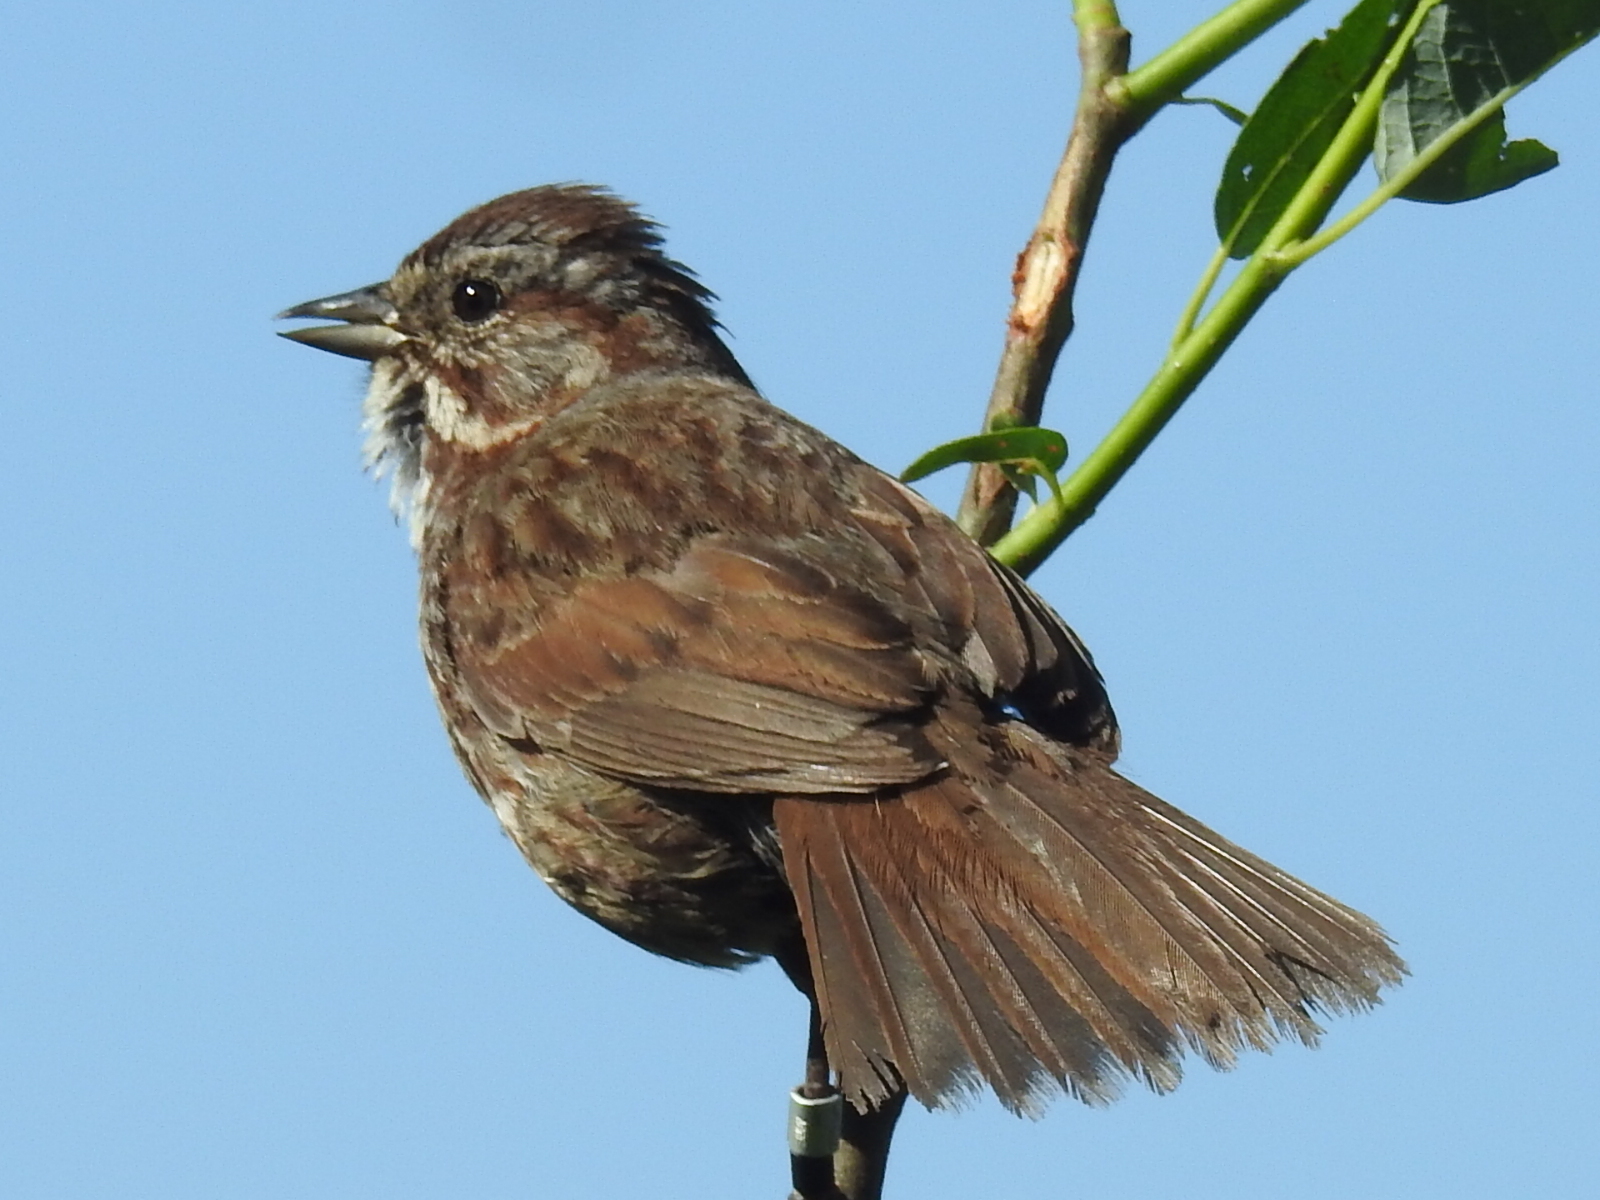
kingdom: Animalia
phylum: Chordata
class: Aves
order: Passeriformes
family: Passerellidae
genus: Melospiza
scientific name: Melospiza melodia
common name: Song sparrow
